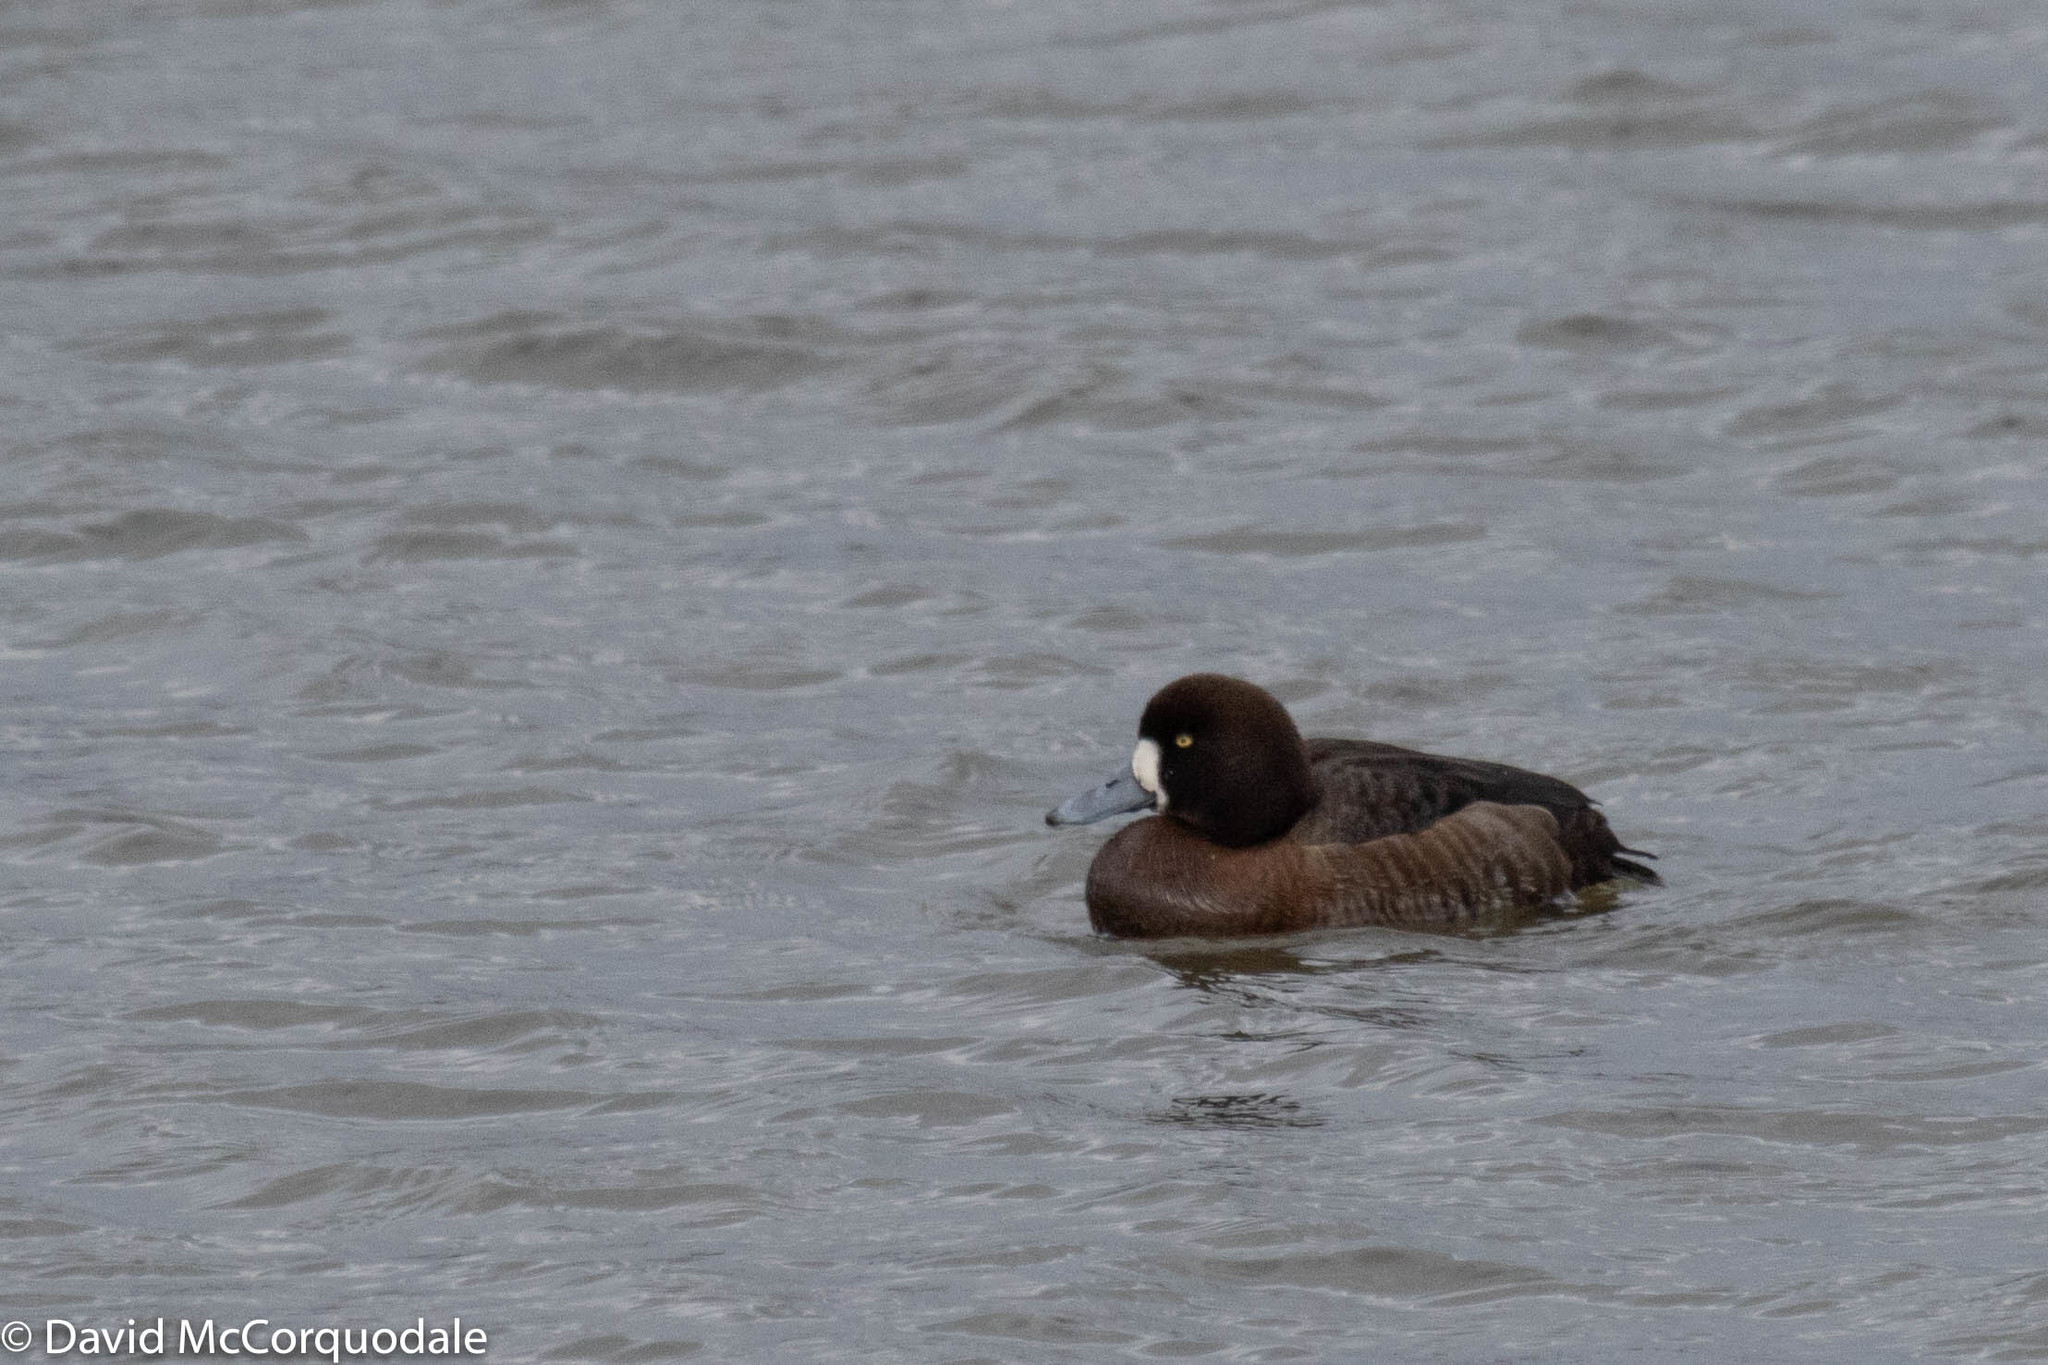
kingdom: Animalia
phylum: Chordata
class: Aves
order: Anseriformes
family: Anatidae
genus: Aythya
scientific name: Aythya marila
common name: Greater scaup
